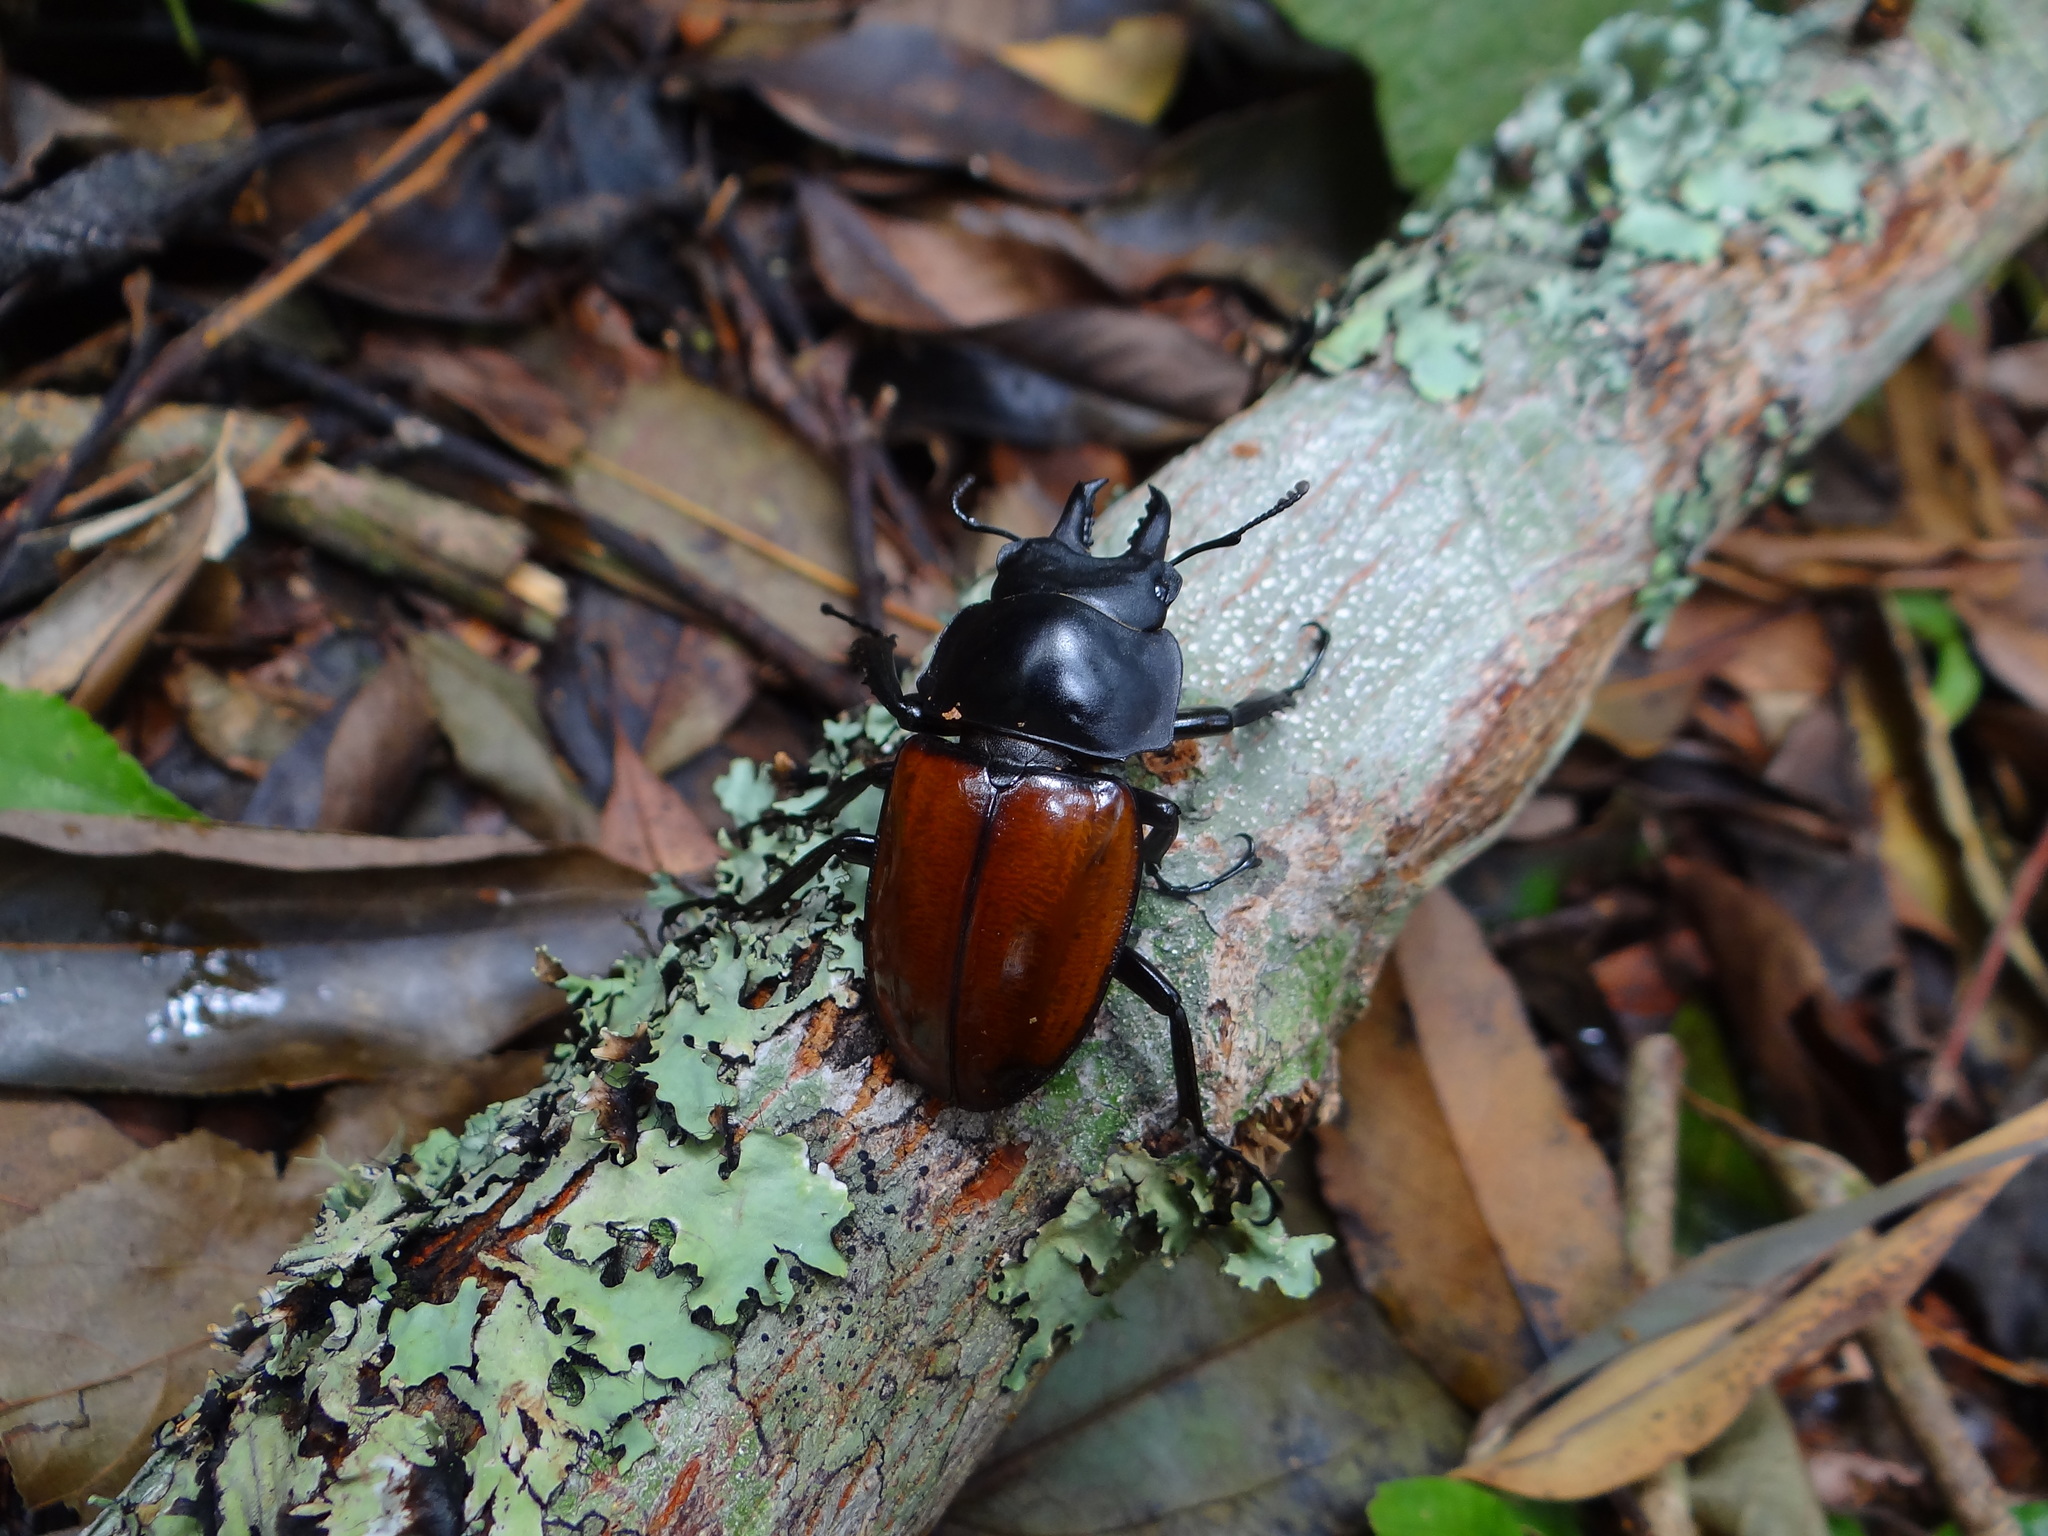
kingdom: Animalia
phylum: Arthropoda
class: Insecta
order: Coleoptera
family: Lucanidae
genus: Neolucanus
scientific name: Neolucanus swinhoei
